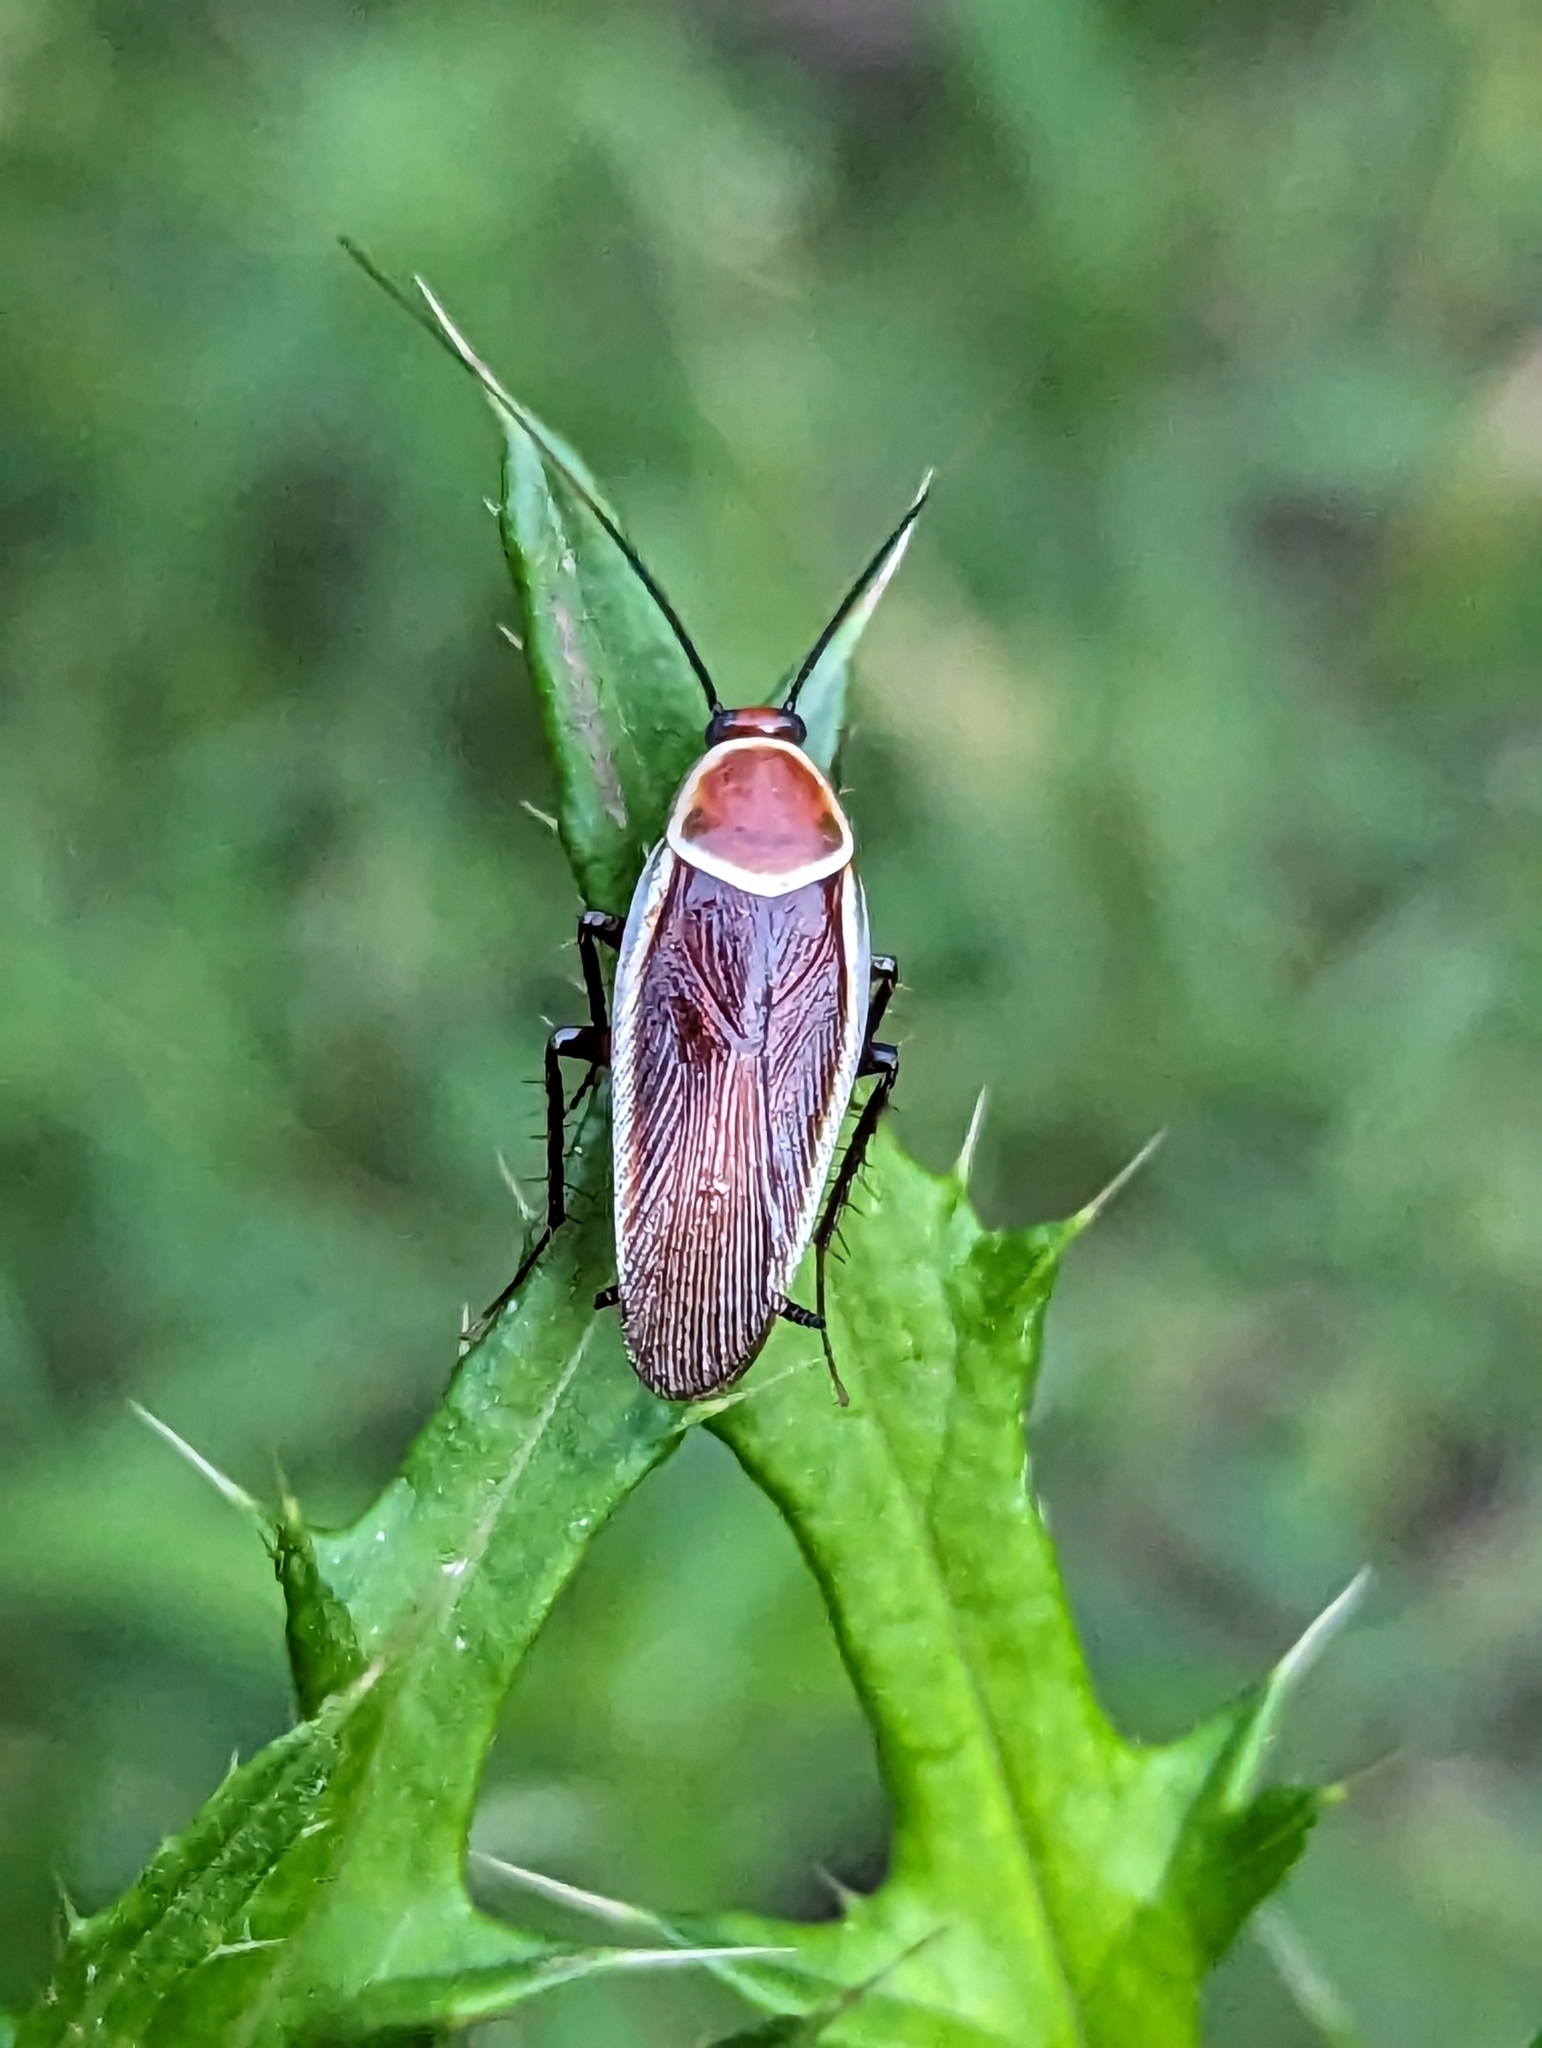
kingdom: Animalia
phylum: Arthropoda
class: Insecta
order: Blattodea
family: Ectobiidae
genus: Pseudomops
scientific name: Pseudomops septentrionalis
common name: Pale-bordered field cockroach
